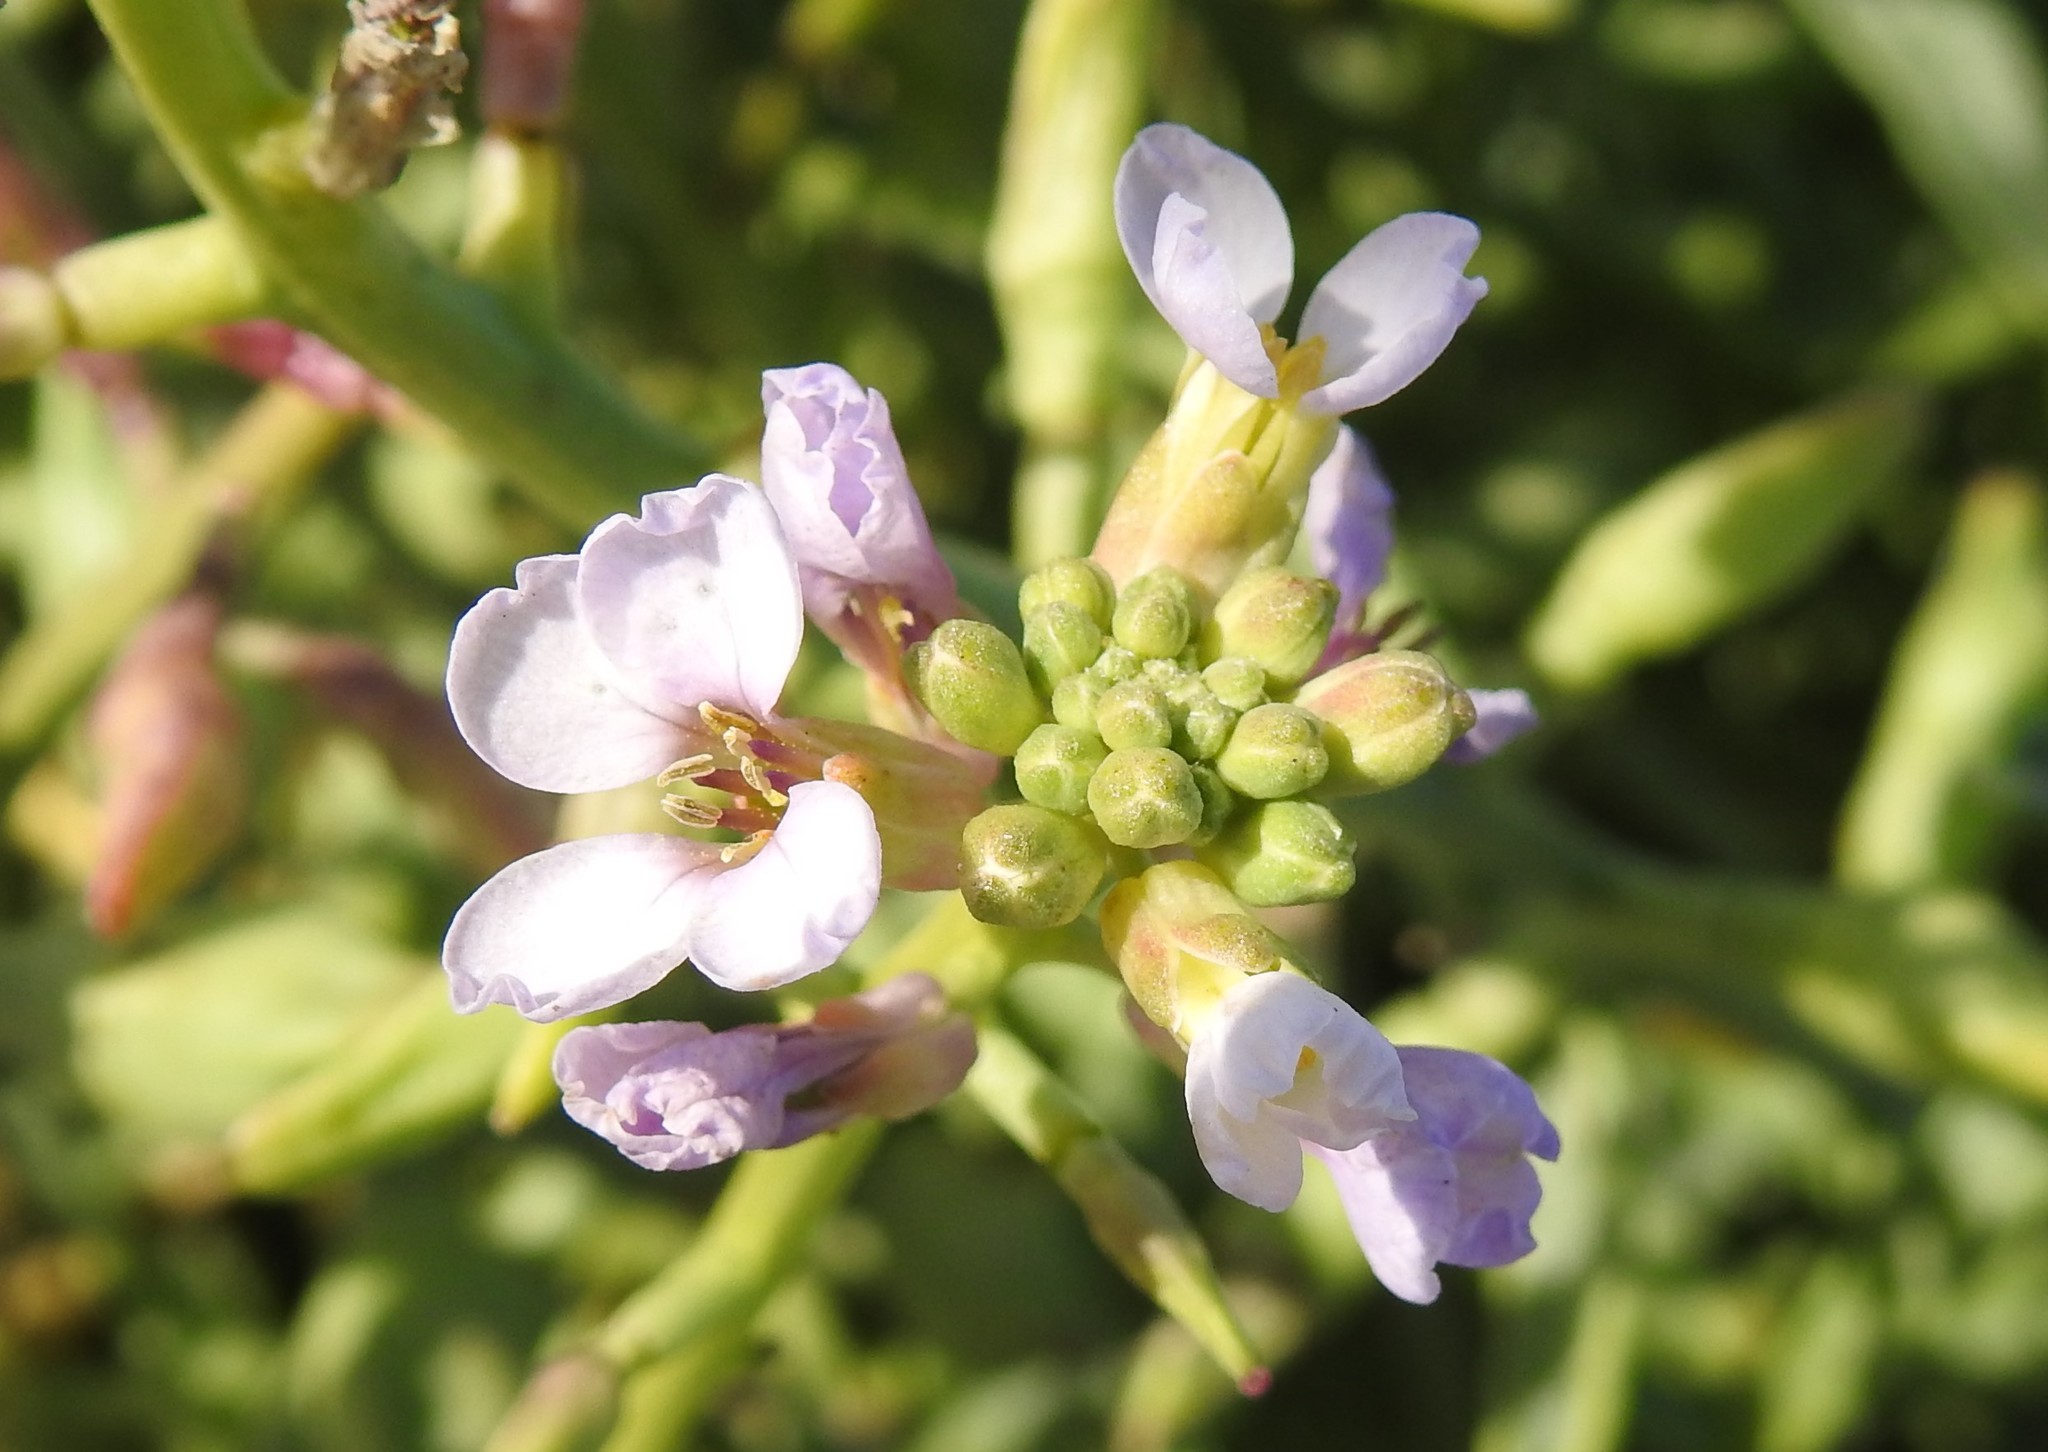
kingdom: Plantae
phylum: Tracheophyta
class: Magnoliopsida
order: Brassicales
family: Brassicaceae
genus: Cakile
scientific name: Cakile maritima
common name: Sea rocket
